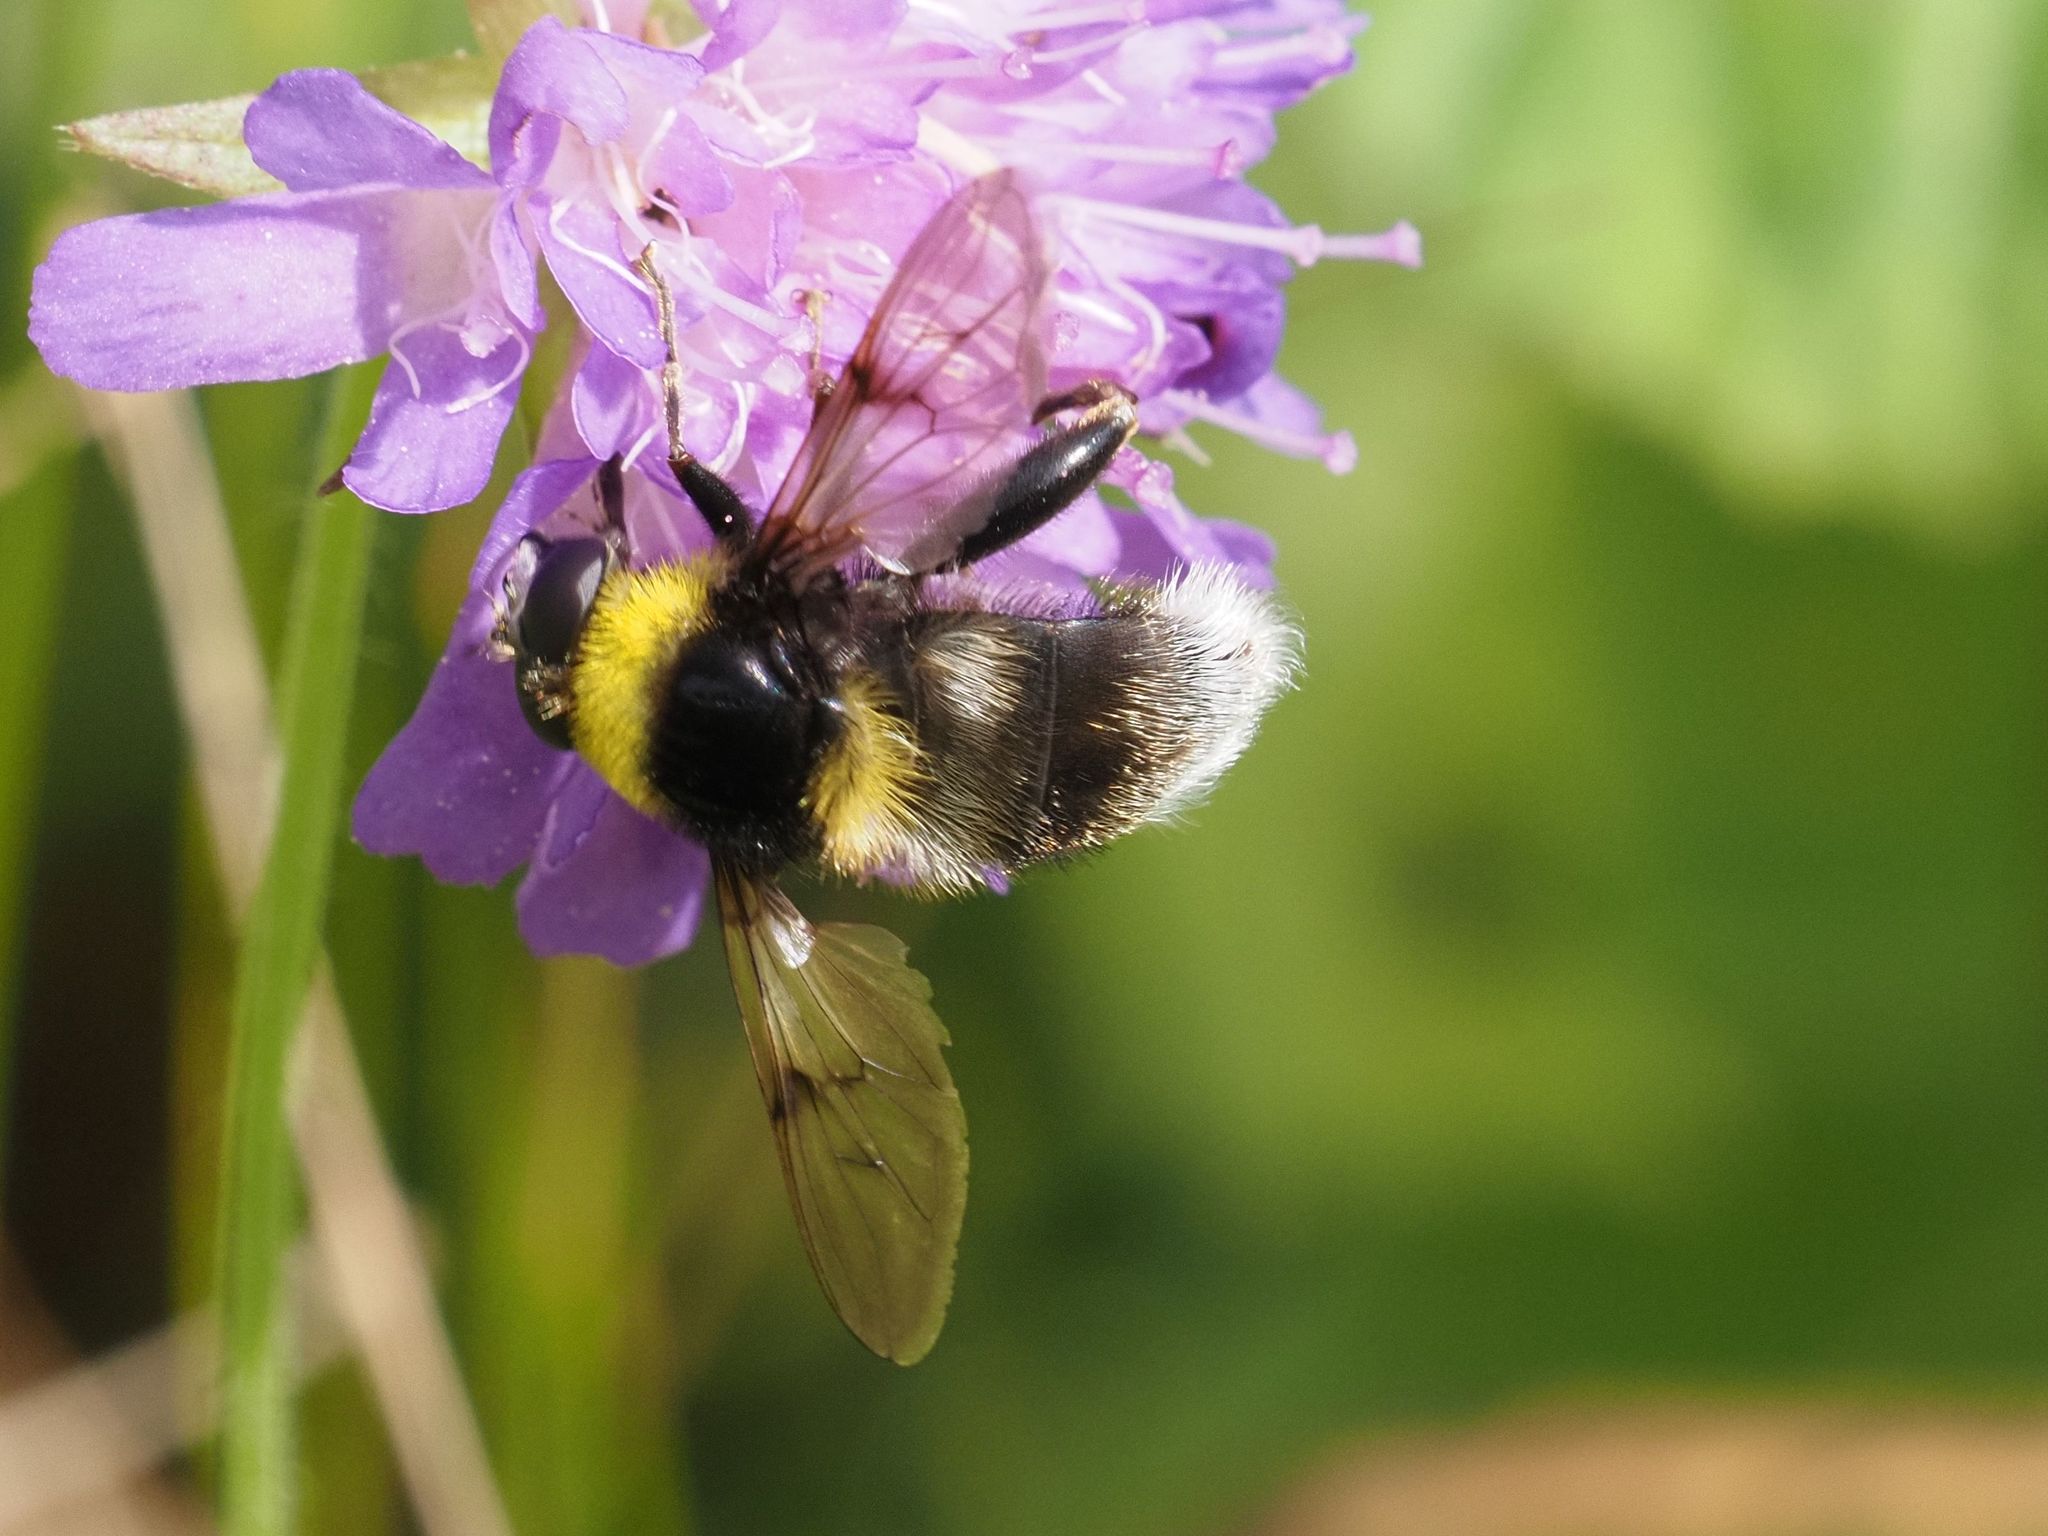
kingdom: Animalia
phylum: Arthropoda
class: Insecta
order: Diptera
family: Syrphidae
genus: Sericomyia
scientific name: Sericomyia bombiformis
